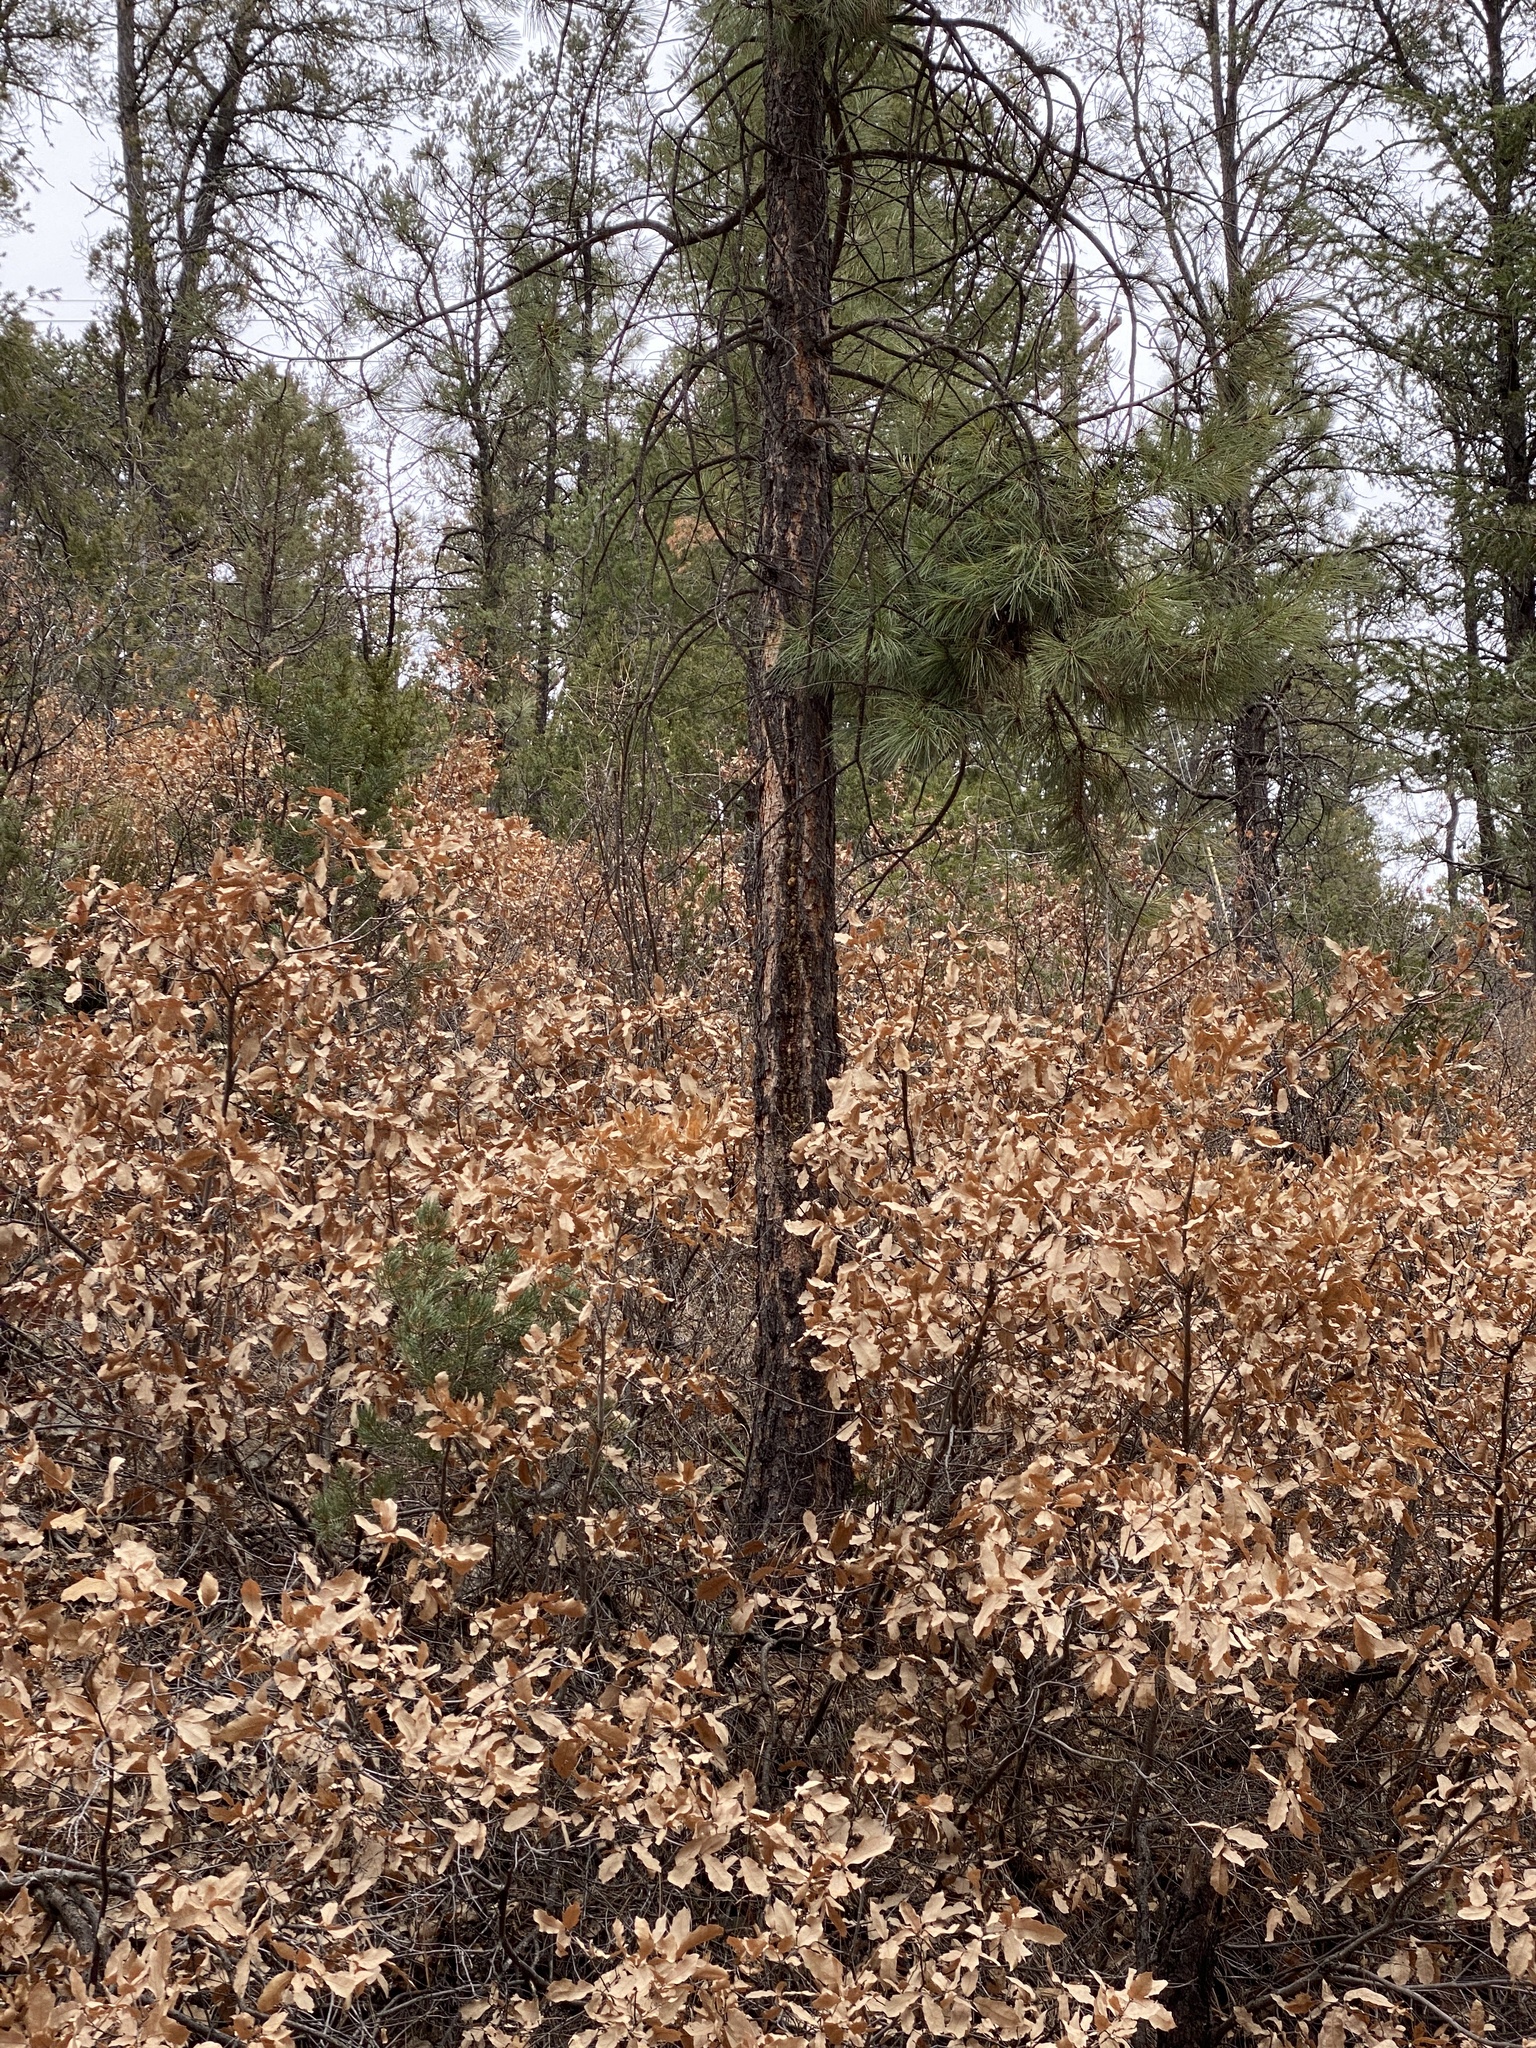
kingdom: Plantae
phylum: Tracheophyta
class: Pinopsida
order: Pinales
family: Pinaceae
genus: Pinus
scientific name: Pinus ponderosa
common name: Western yellow-pine
